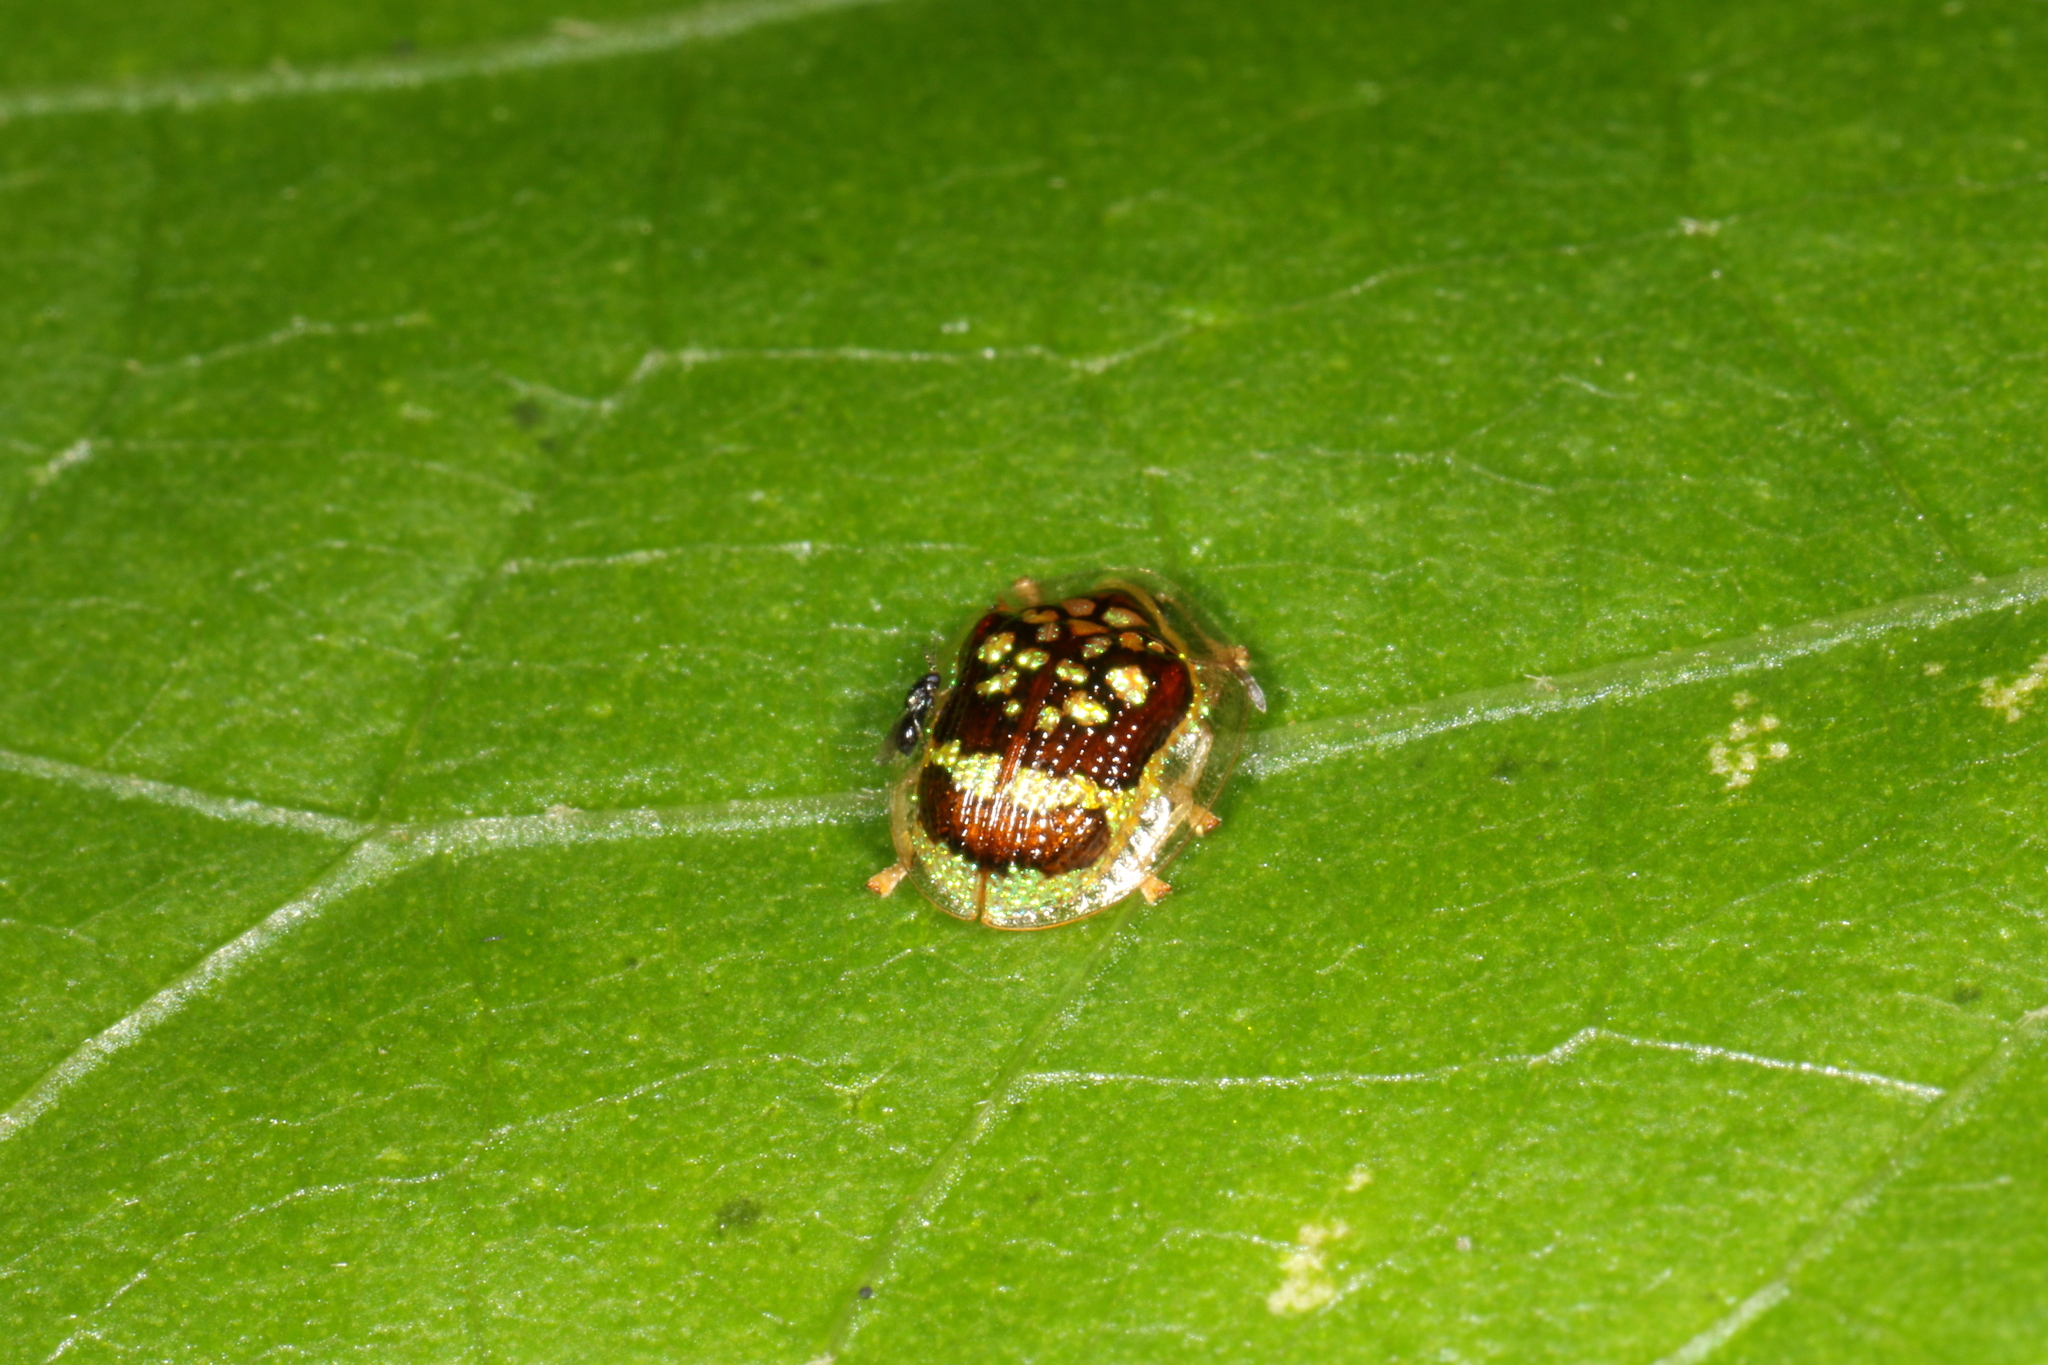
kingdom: Animalia
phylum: Arthropoda
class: Insecta
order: Coleoptera
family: Chrysomelidae
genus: Microctenochira
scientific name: Microctenochira brasiliensis
